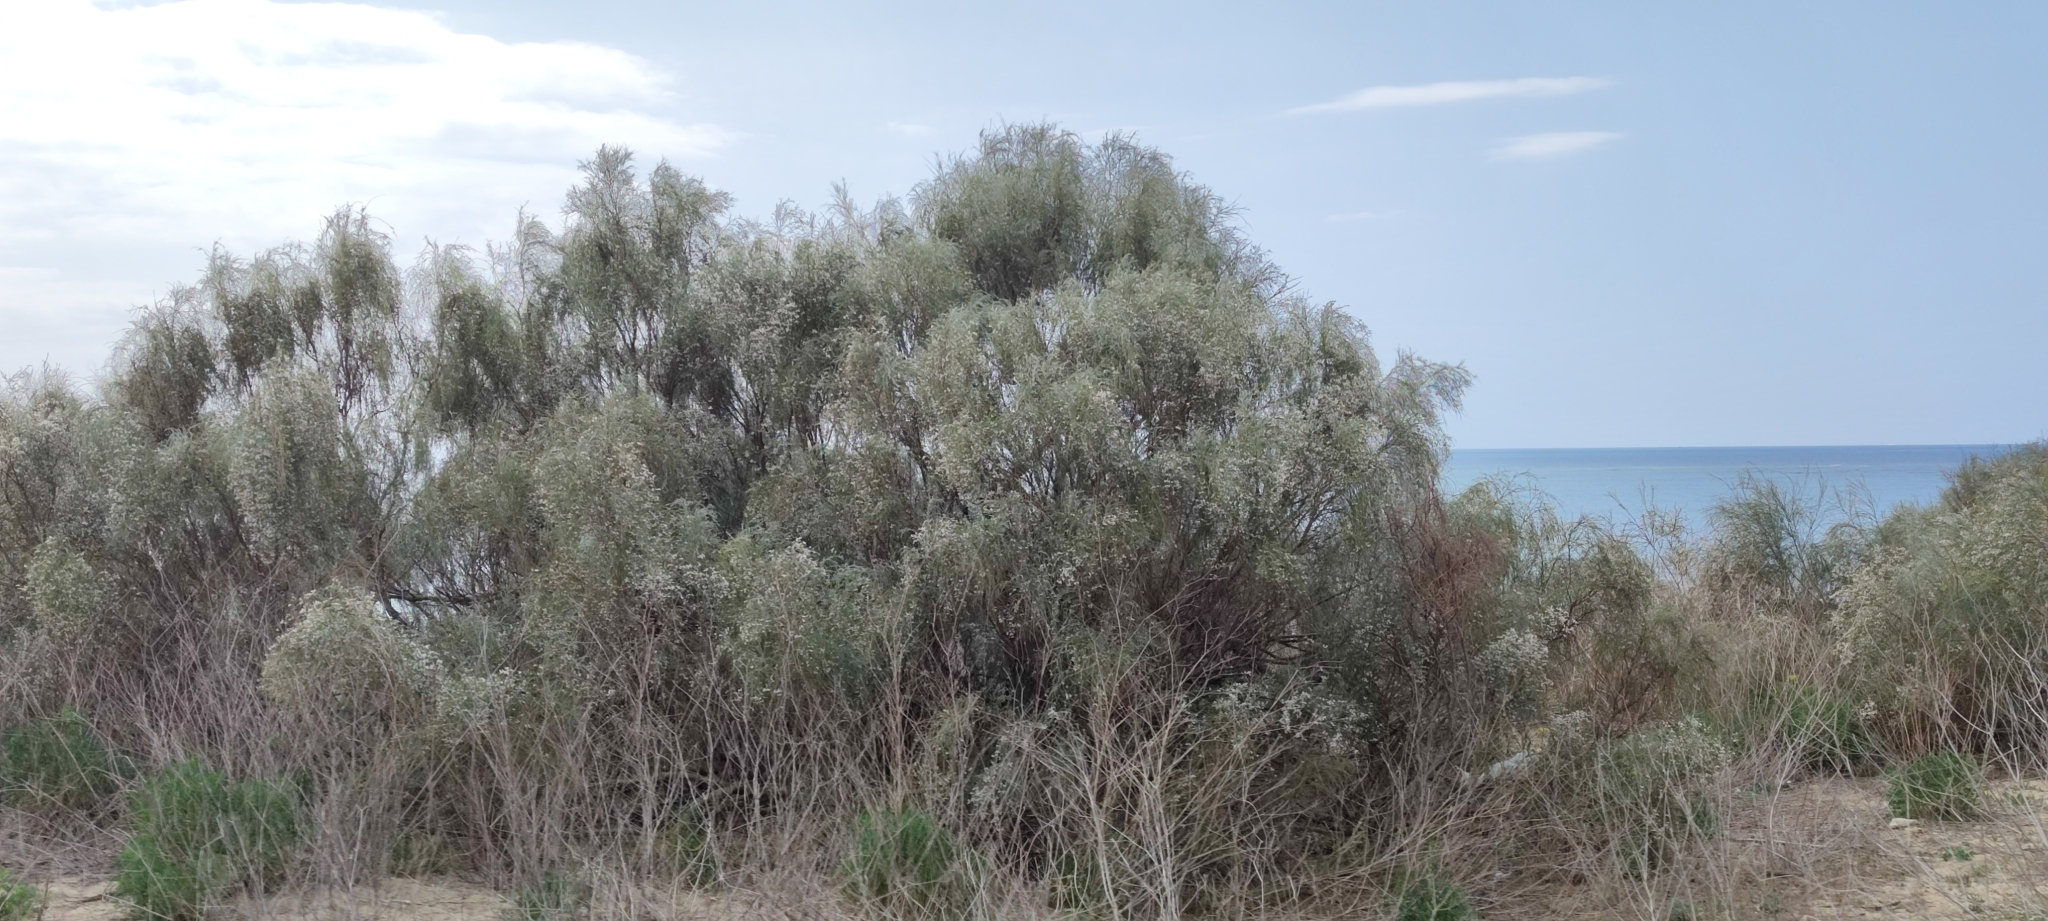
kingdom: Plantae
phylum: Tracheophyta
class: Magnoliopsida
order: Fabales
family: Fabaceae
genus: Retama
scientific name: Retama monosperma
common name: Bridal broom
